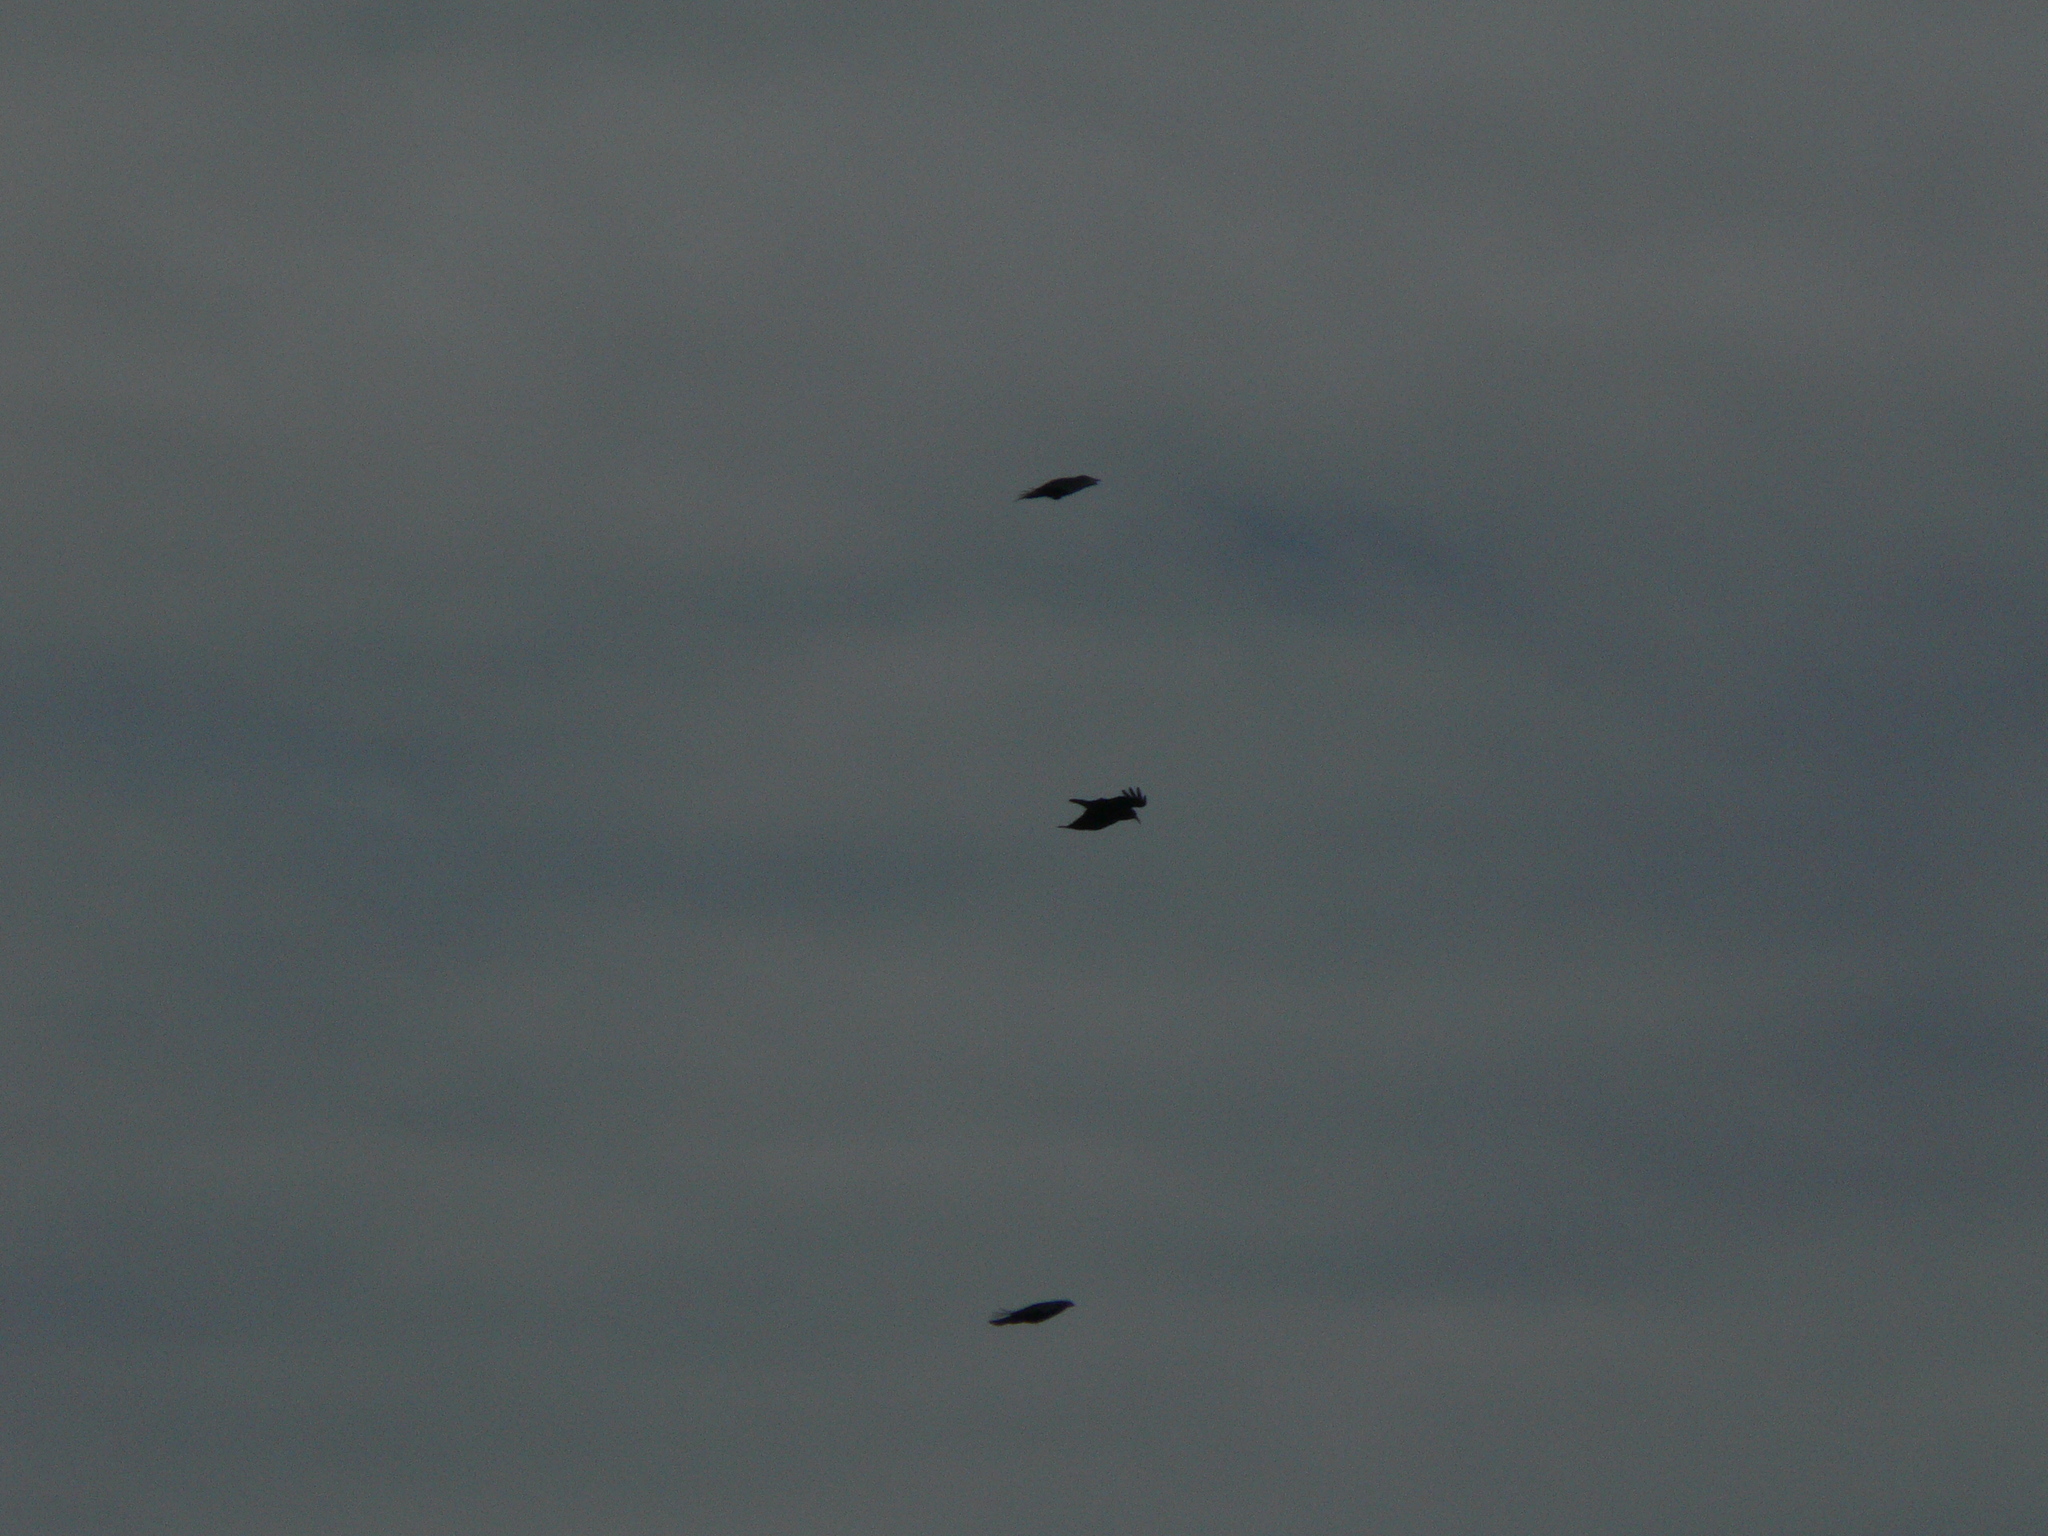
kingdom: Animalia
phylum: Chordata
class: Aves
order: Passeriformes
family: Corvidae
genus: Pyrrhocorax
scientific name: Pyrrhocorax pyrrhocorax
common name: Red-billed chough
